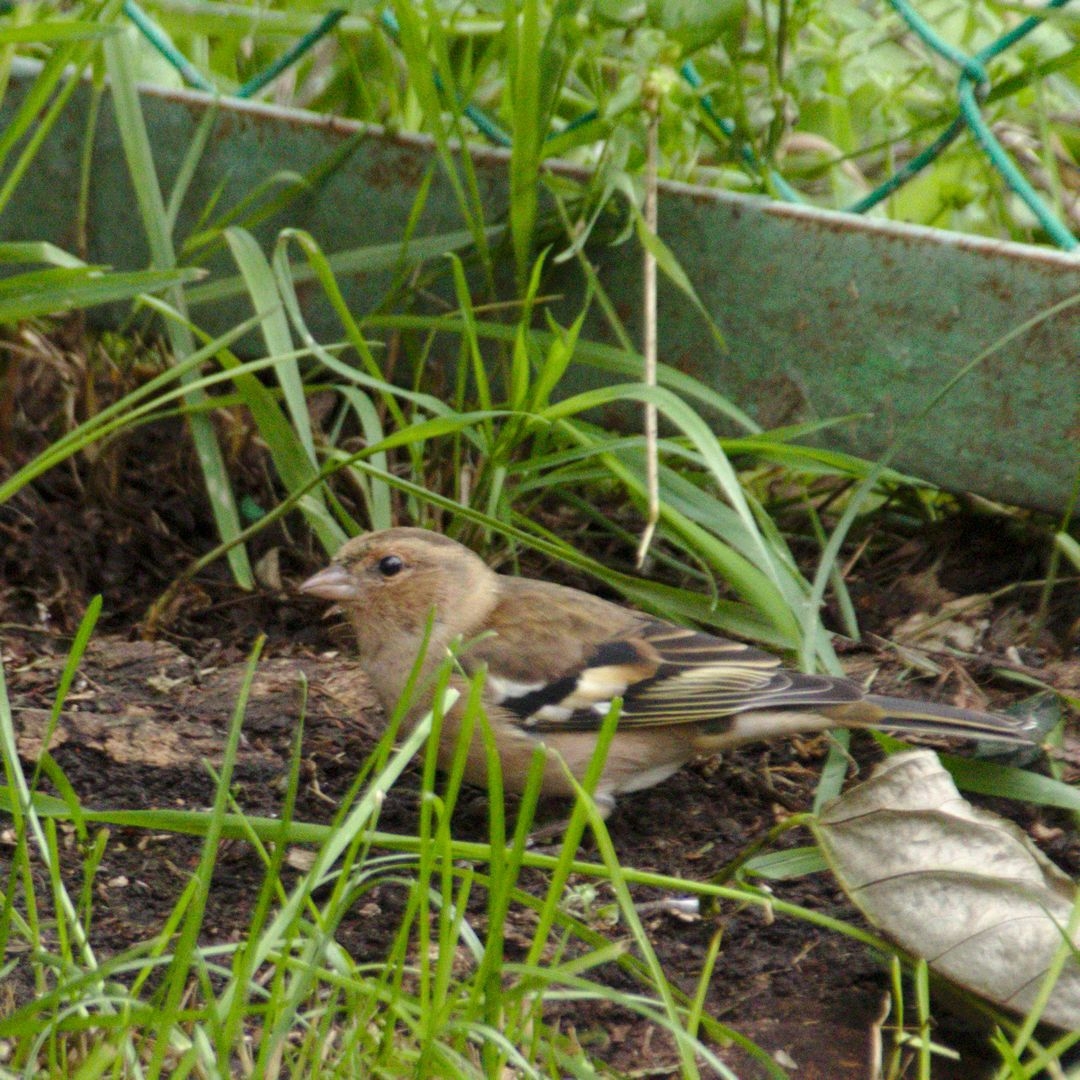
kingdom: Animalia
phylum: Chordata
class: Aves
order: Passeriformes
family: Fringillidae
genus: Fringilla
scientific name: Fringilla coelebs
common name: Common chaffinch
